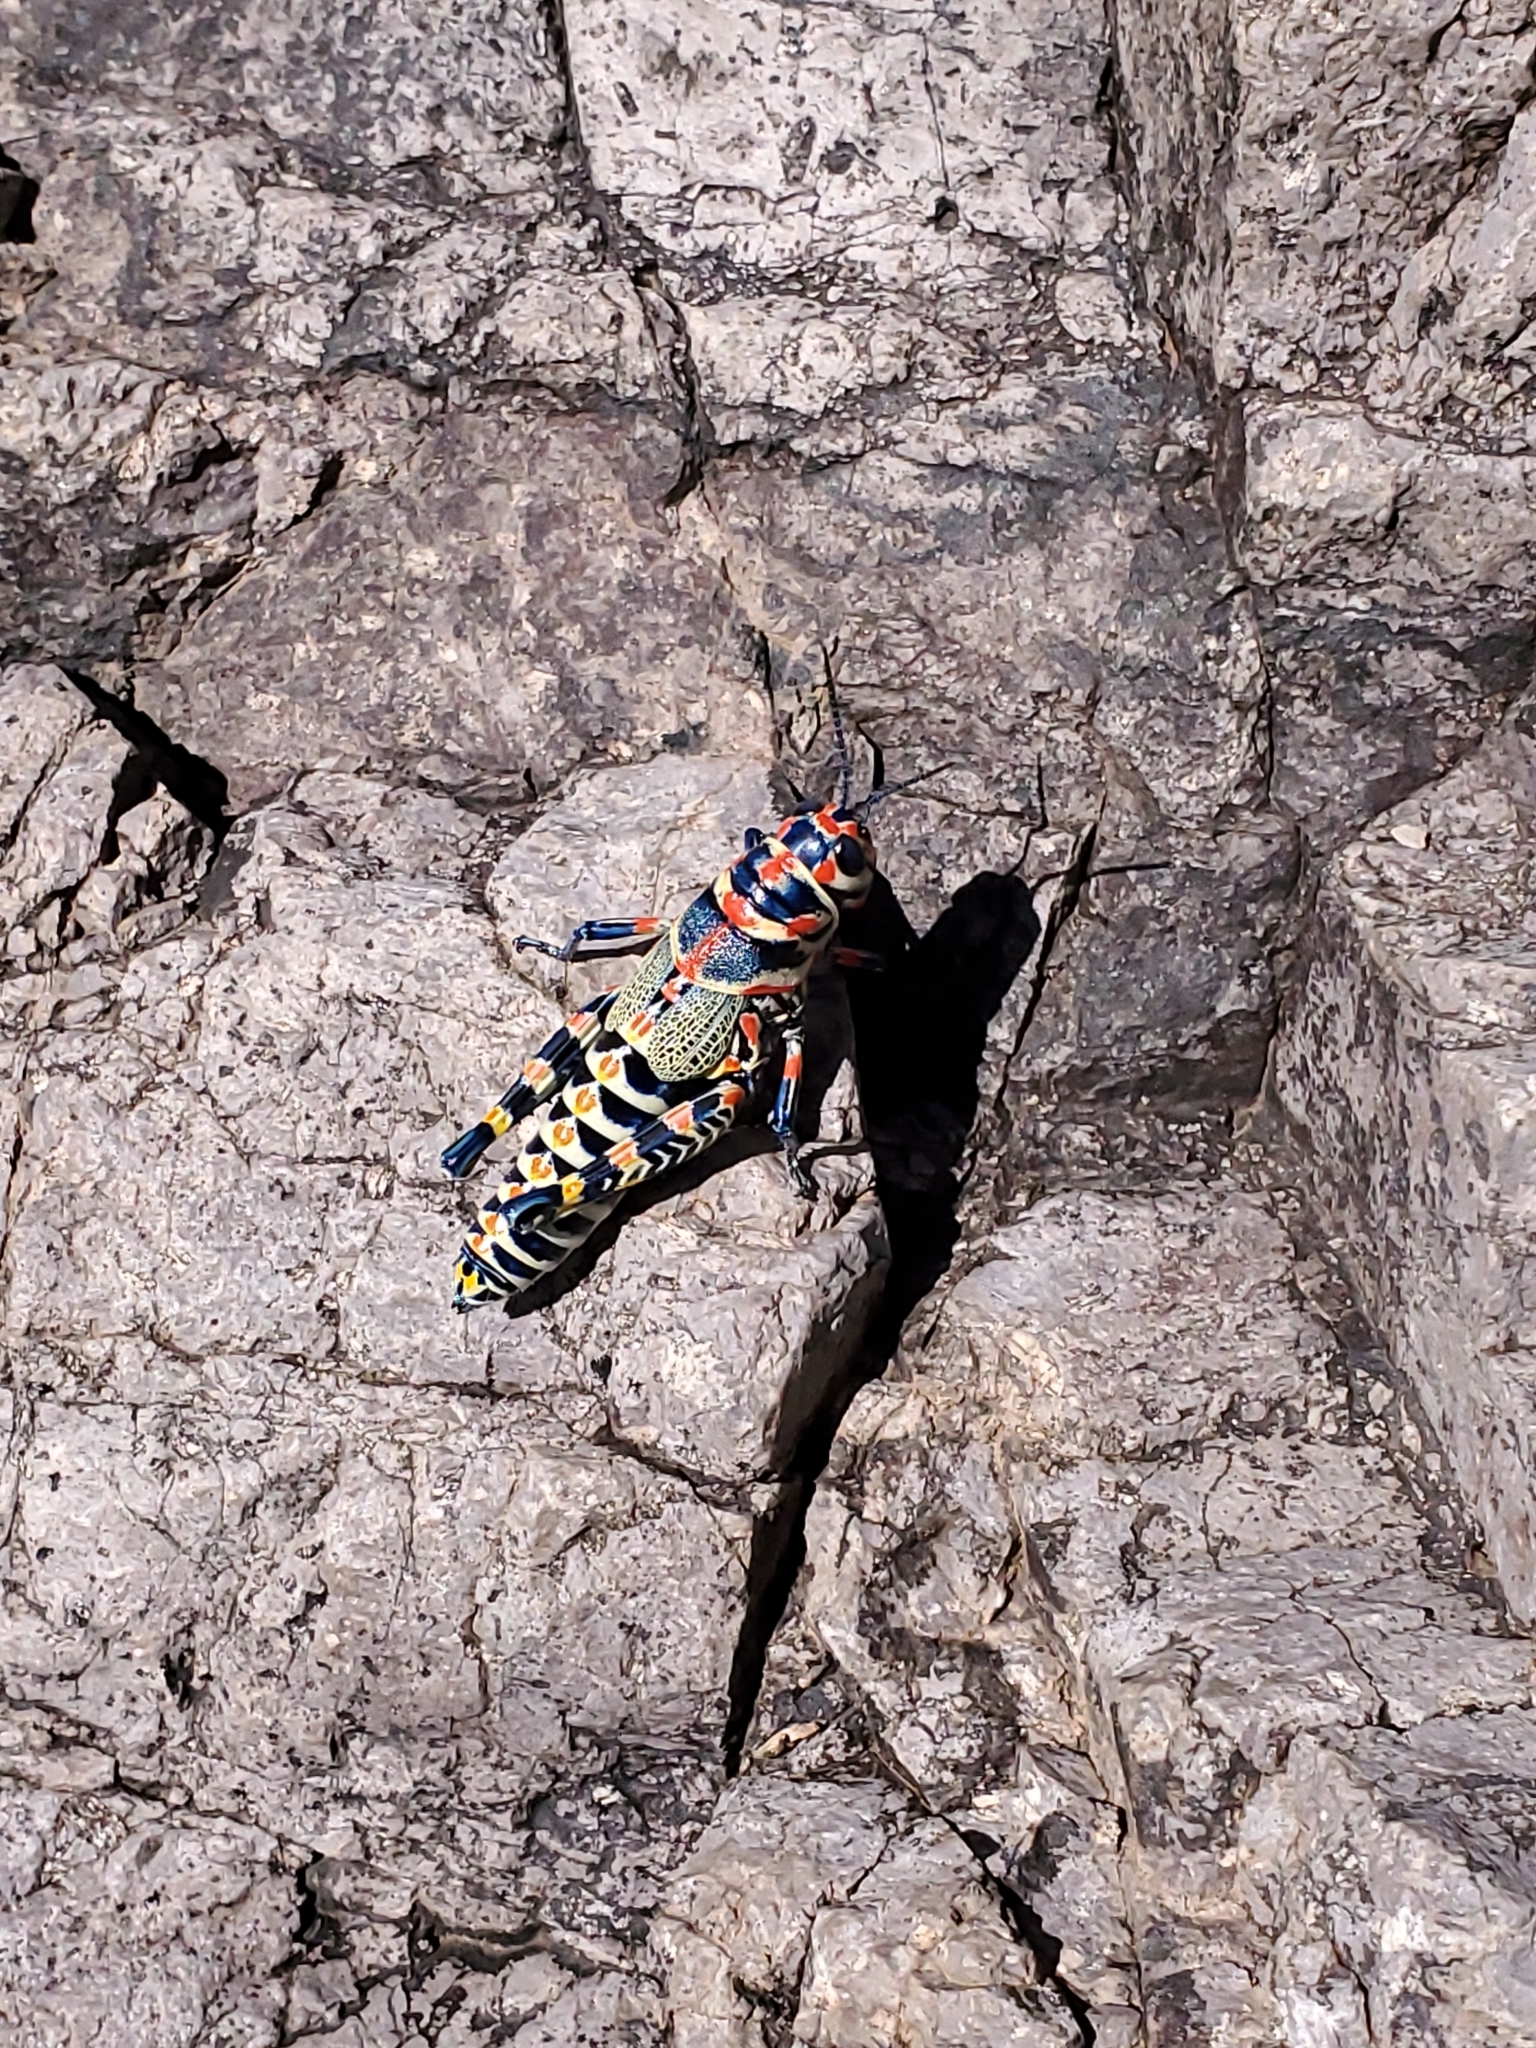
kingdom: Animalia
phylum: Arthropoda
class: Insecta
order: Orthoptera
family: Acrididae
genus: Dactylotum
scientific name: Dactylotum bicolor
